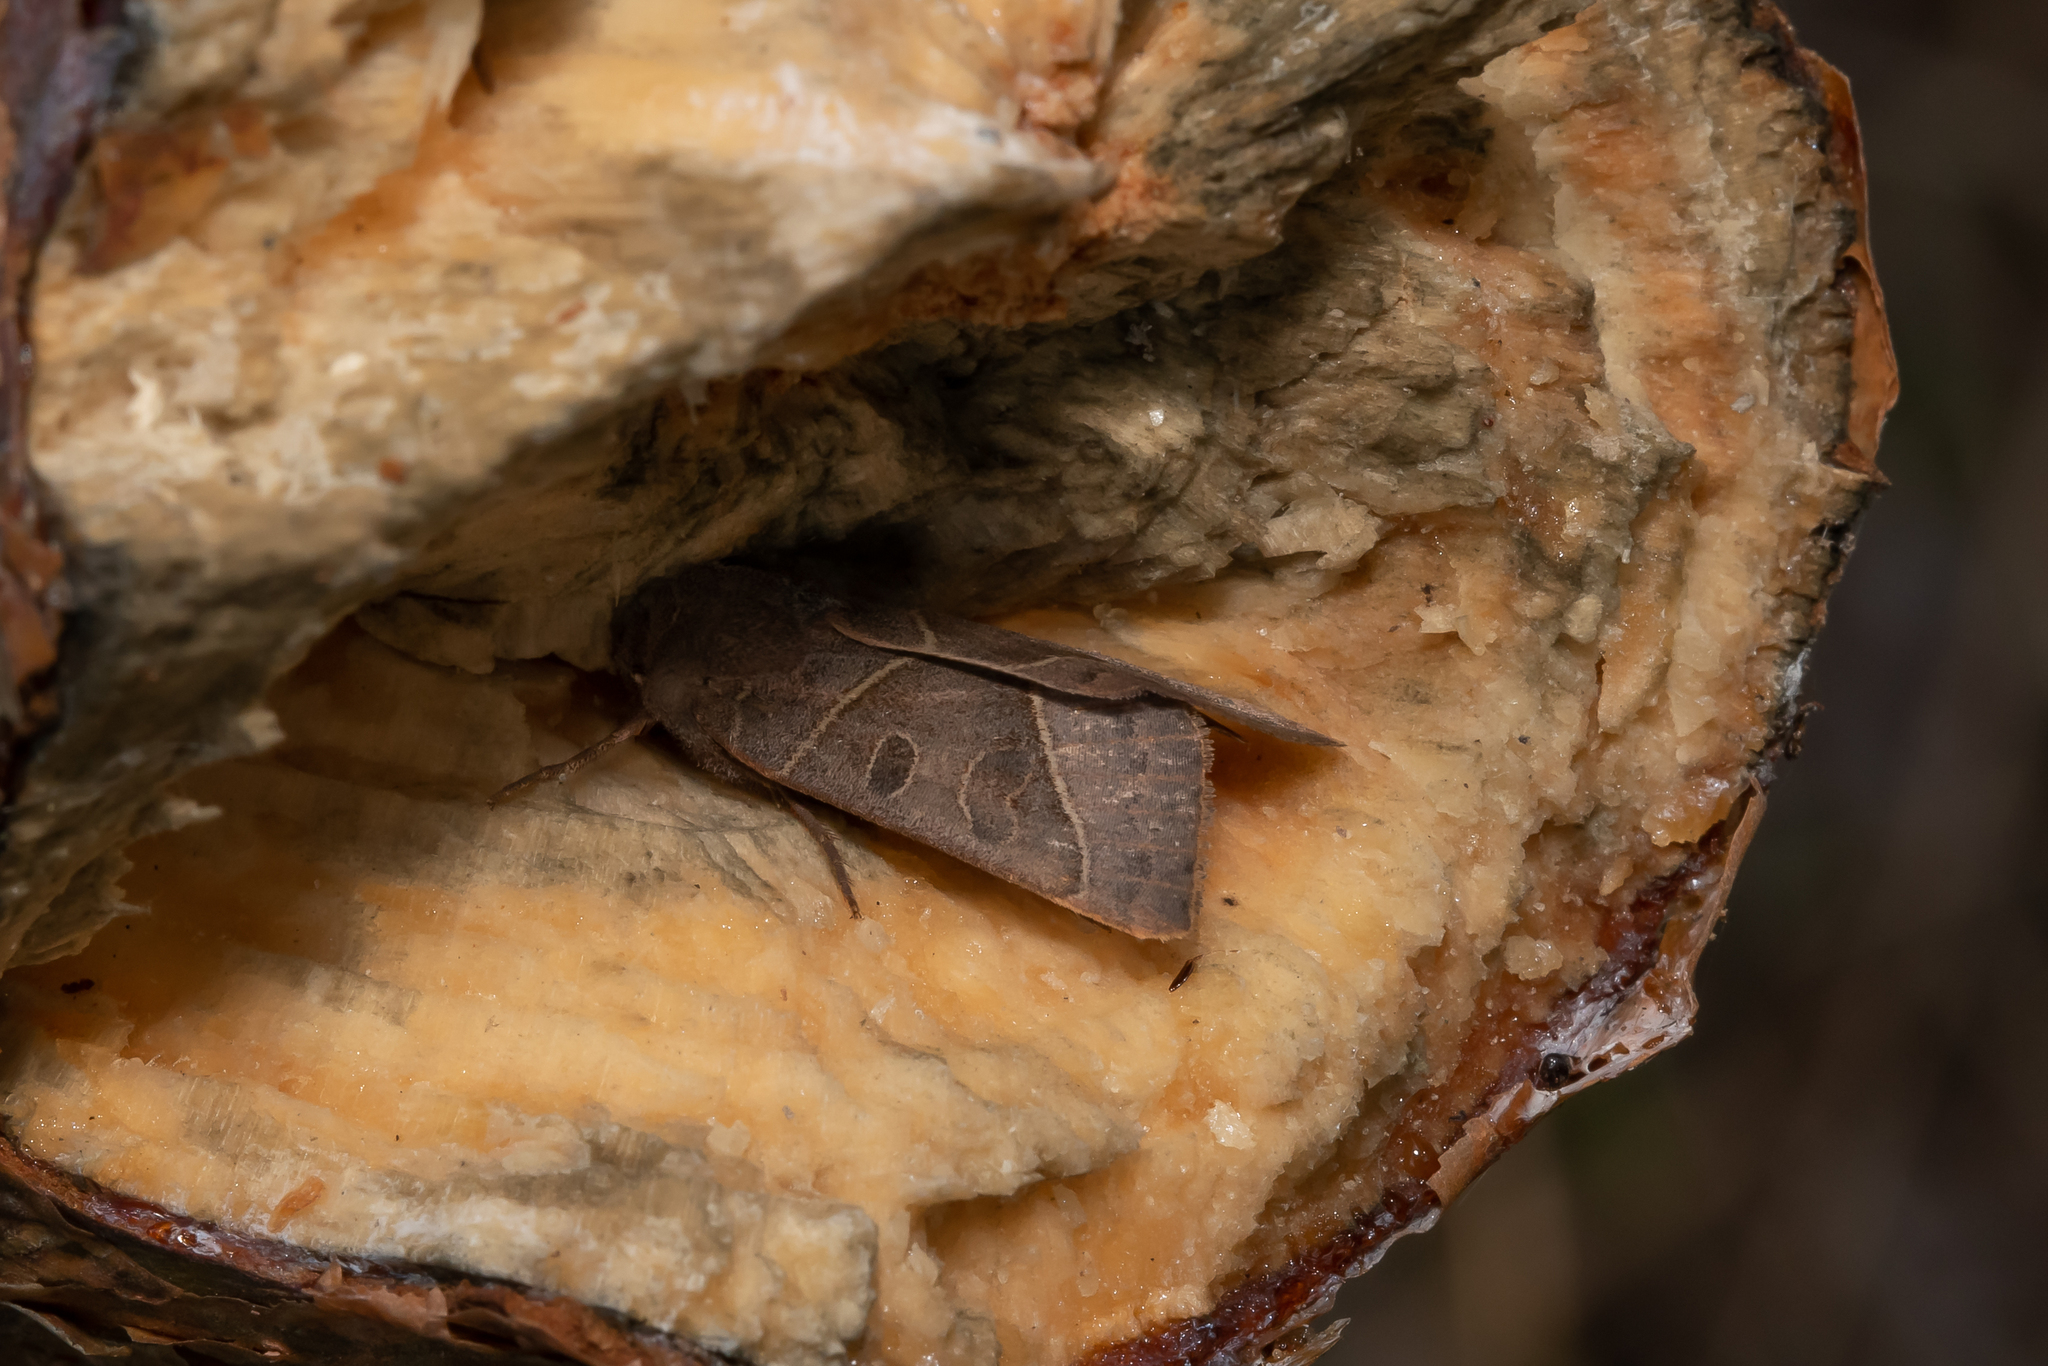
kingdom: Animalia
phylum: Arthropoda
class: Insecta
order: Lepidoptera
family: Noctuidae
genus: Mesogona
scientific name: Mesogona oxalina
